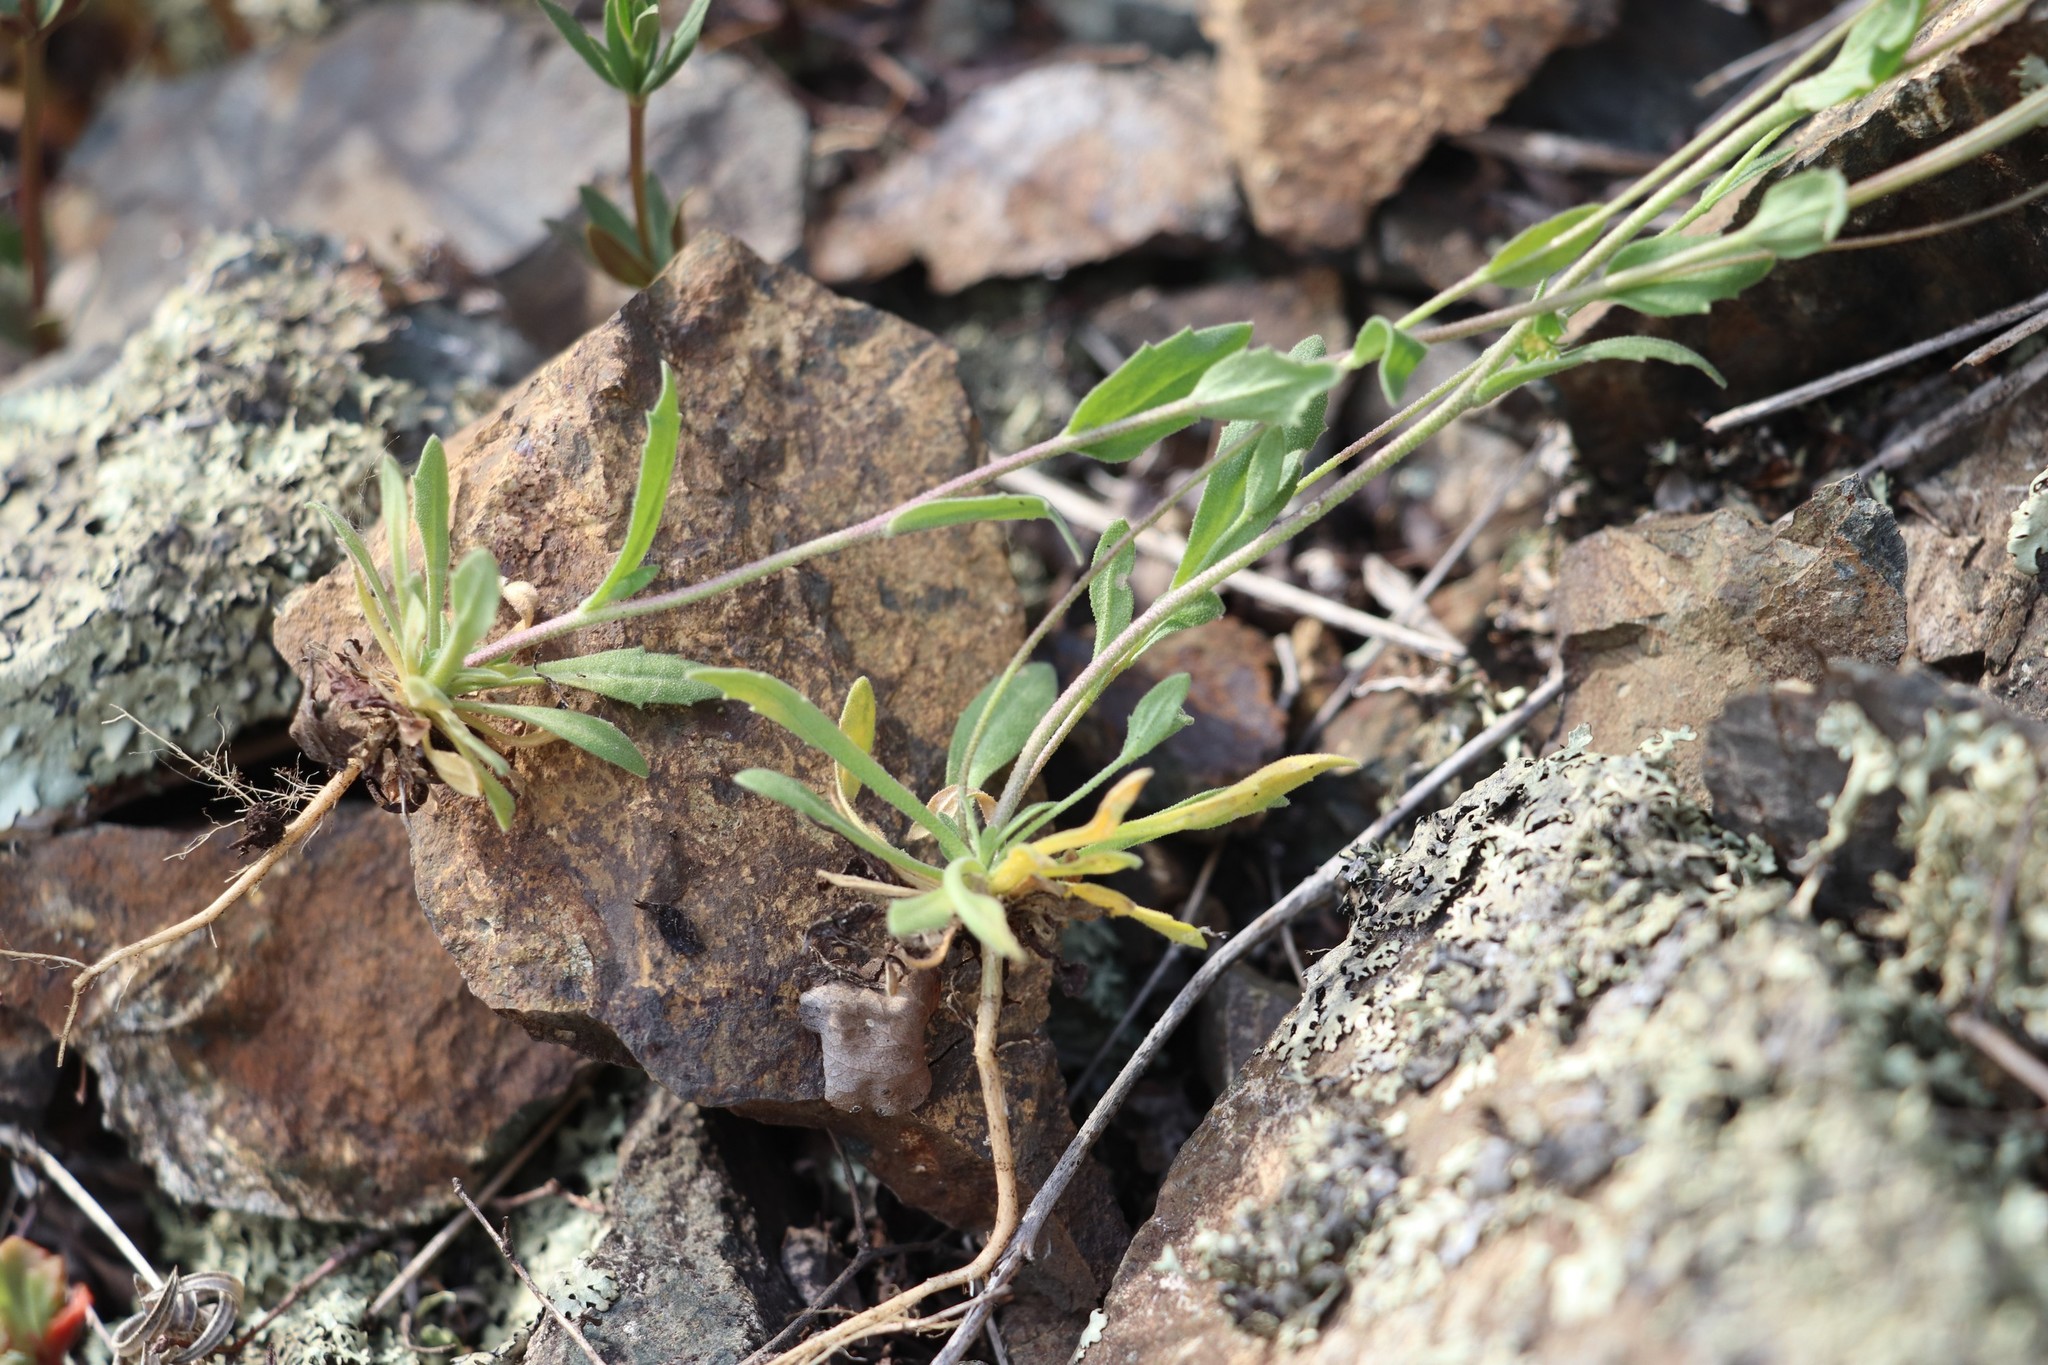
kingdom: Plantae
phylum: Tracheophyta
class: Magnoliopsida
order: Brassicales
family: Brassicaceae
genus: Draba
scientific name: Draba lanceolata
